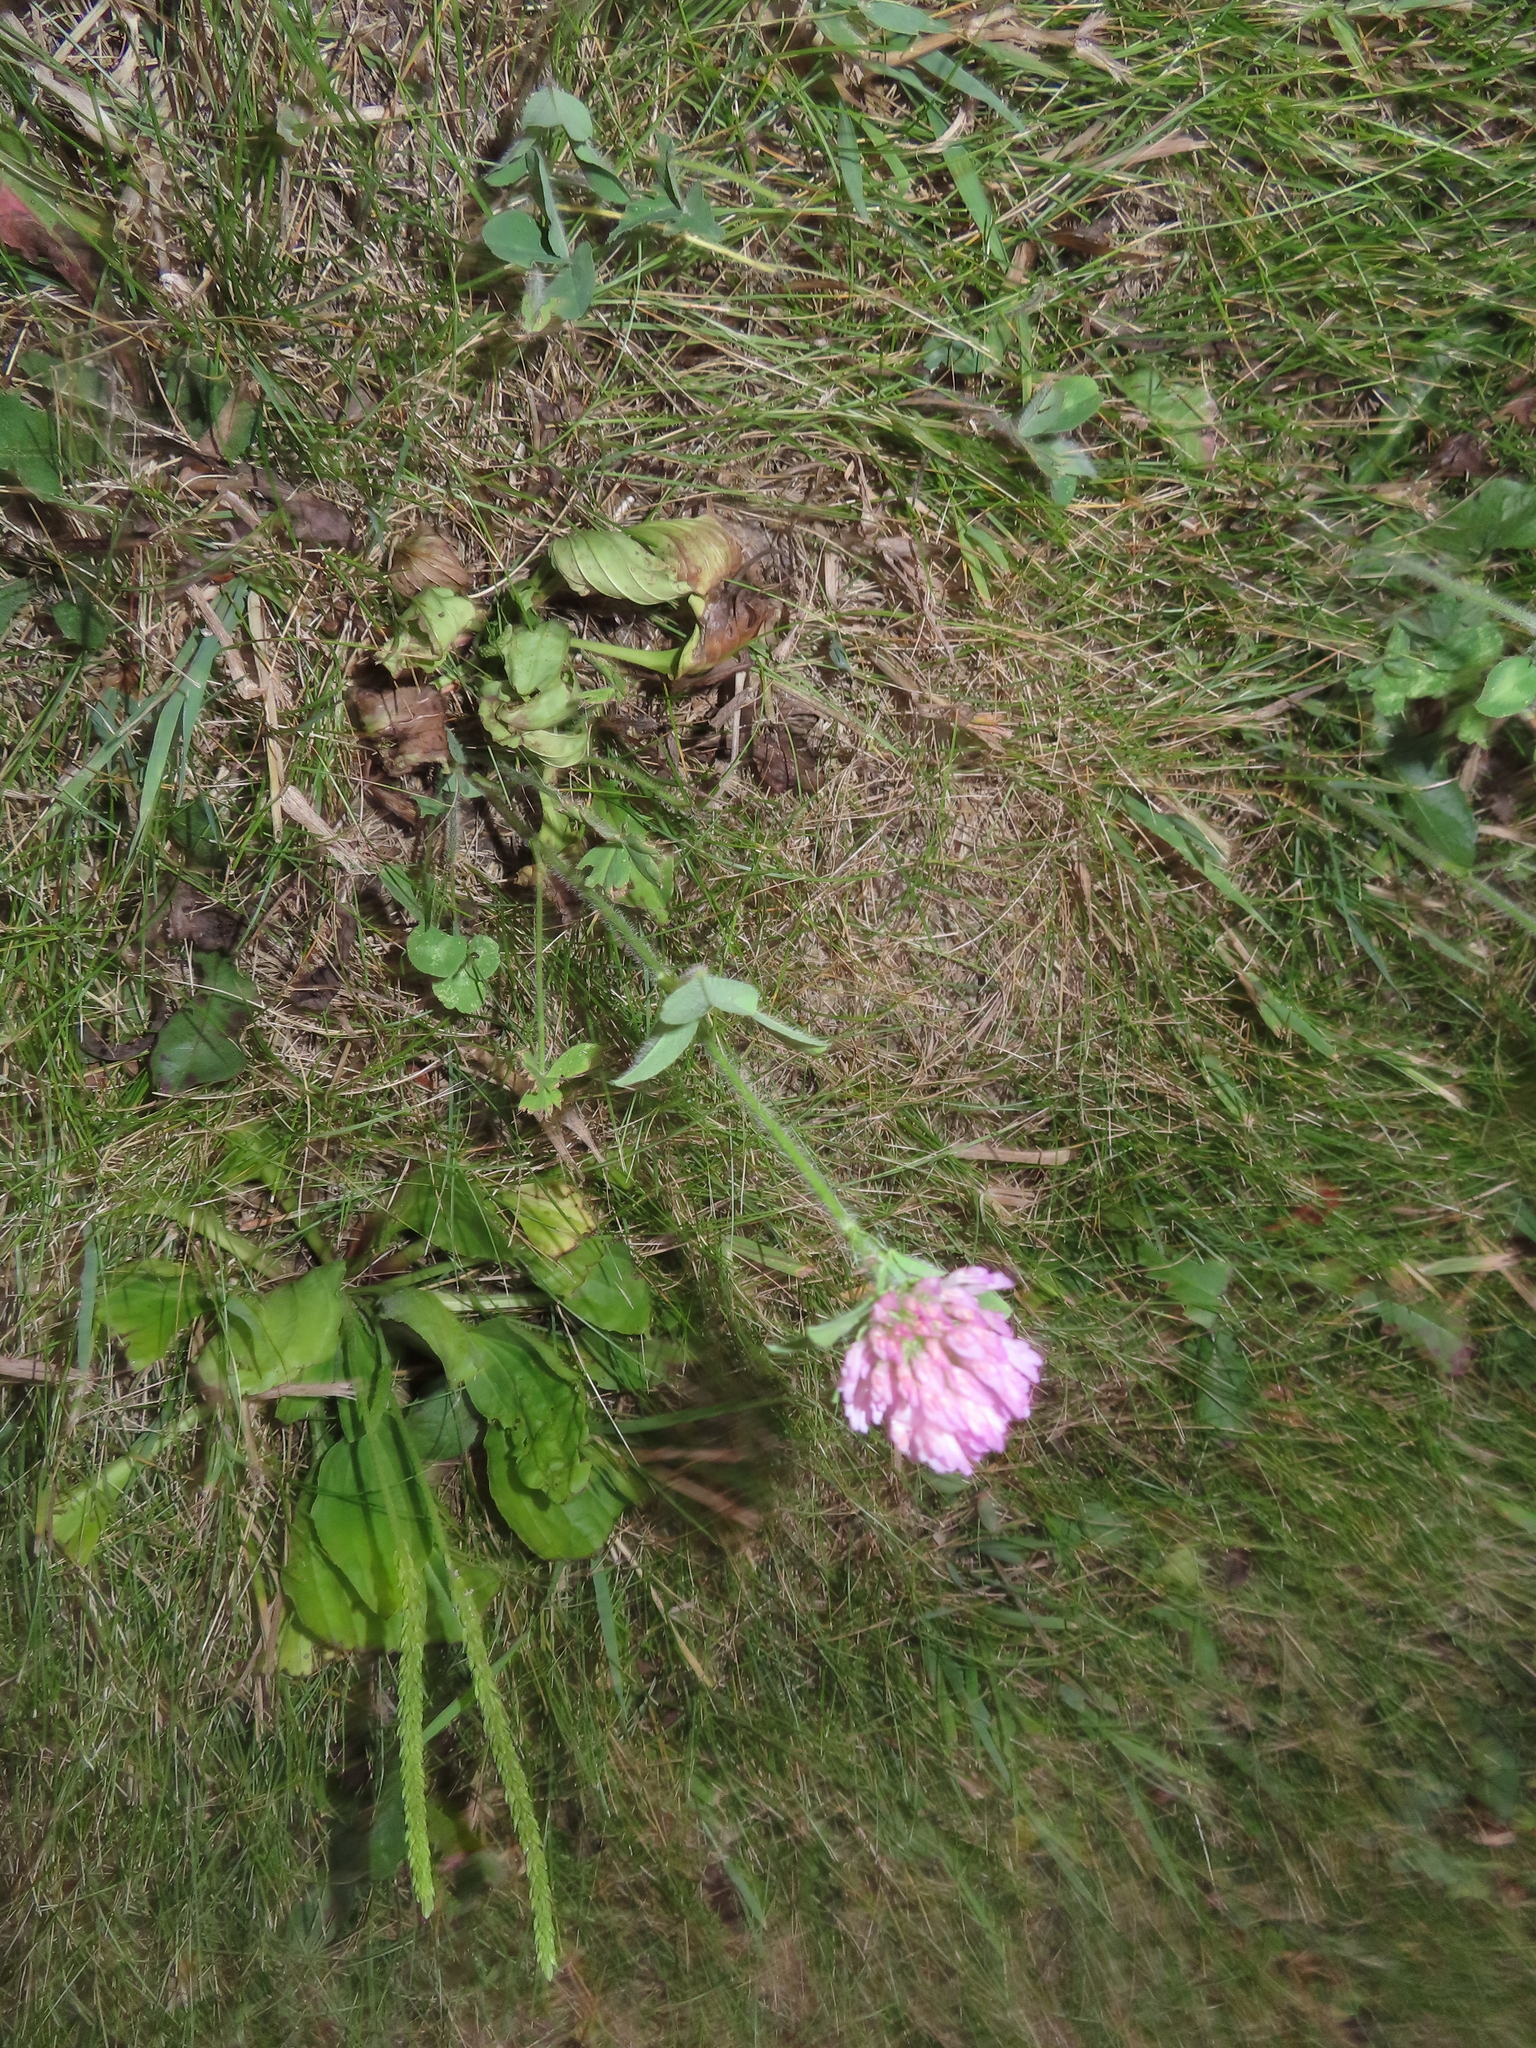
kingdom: Plantae
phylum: Tracheophyta
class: Magnoliopsida
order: Fabales
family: Fabaceae
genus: Trifolium
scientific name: Trifolium pratense
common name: Red clover
